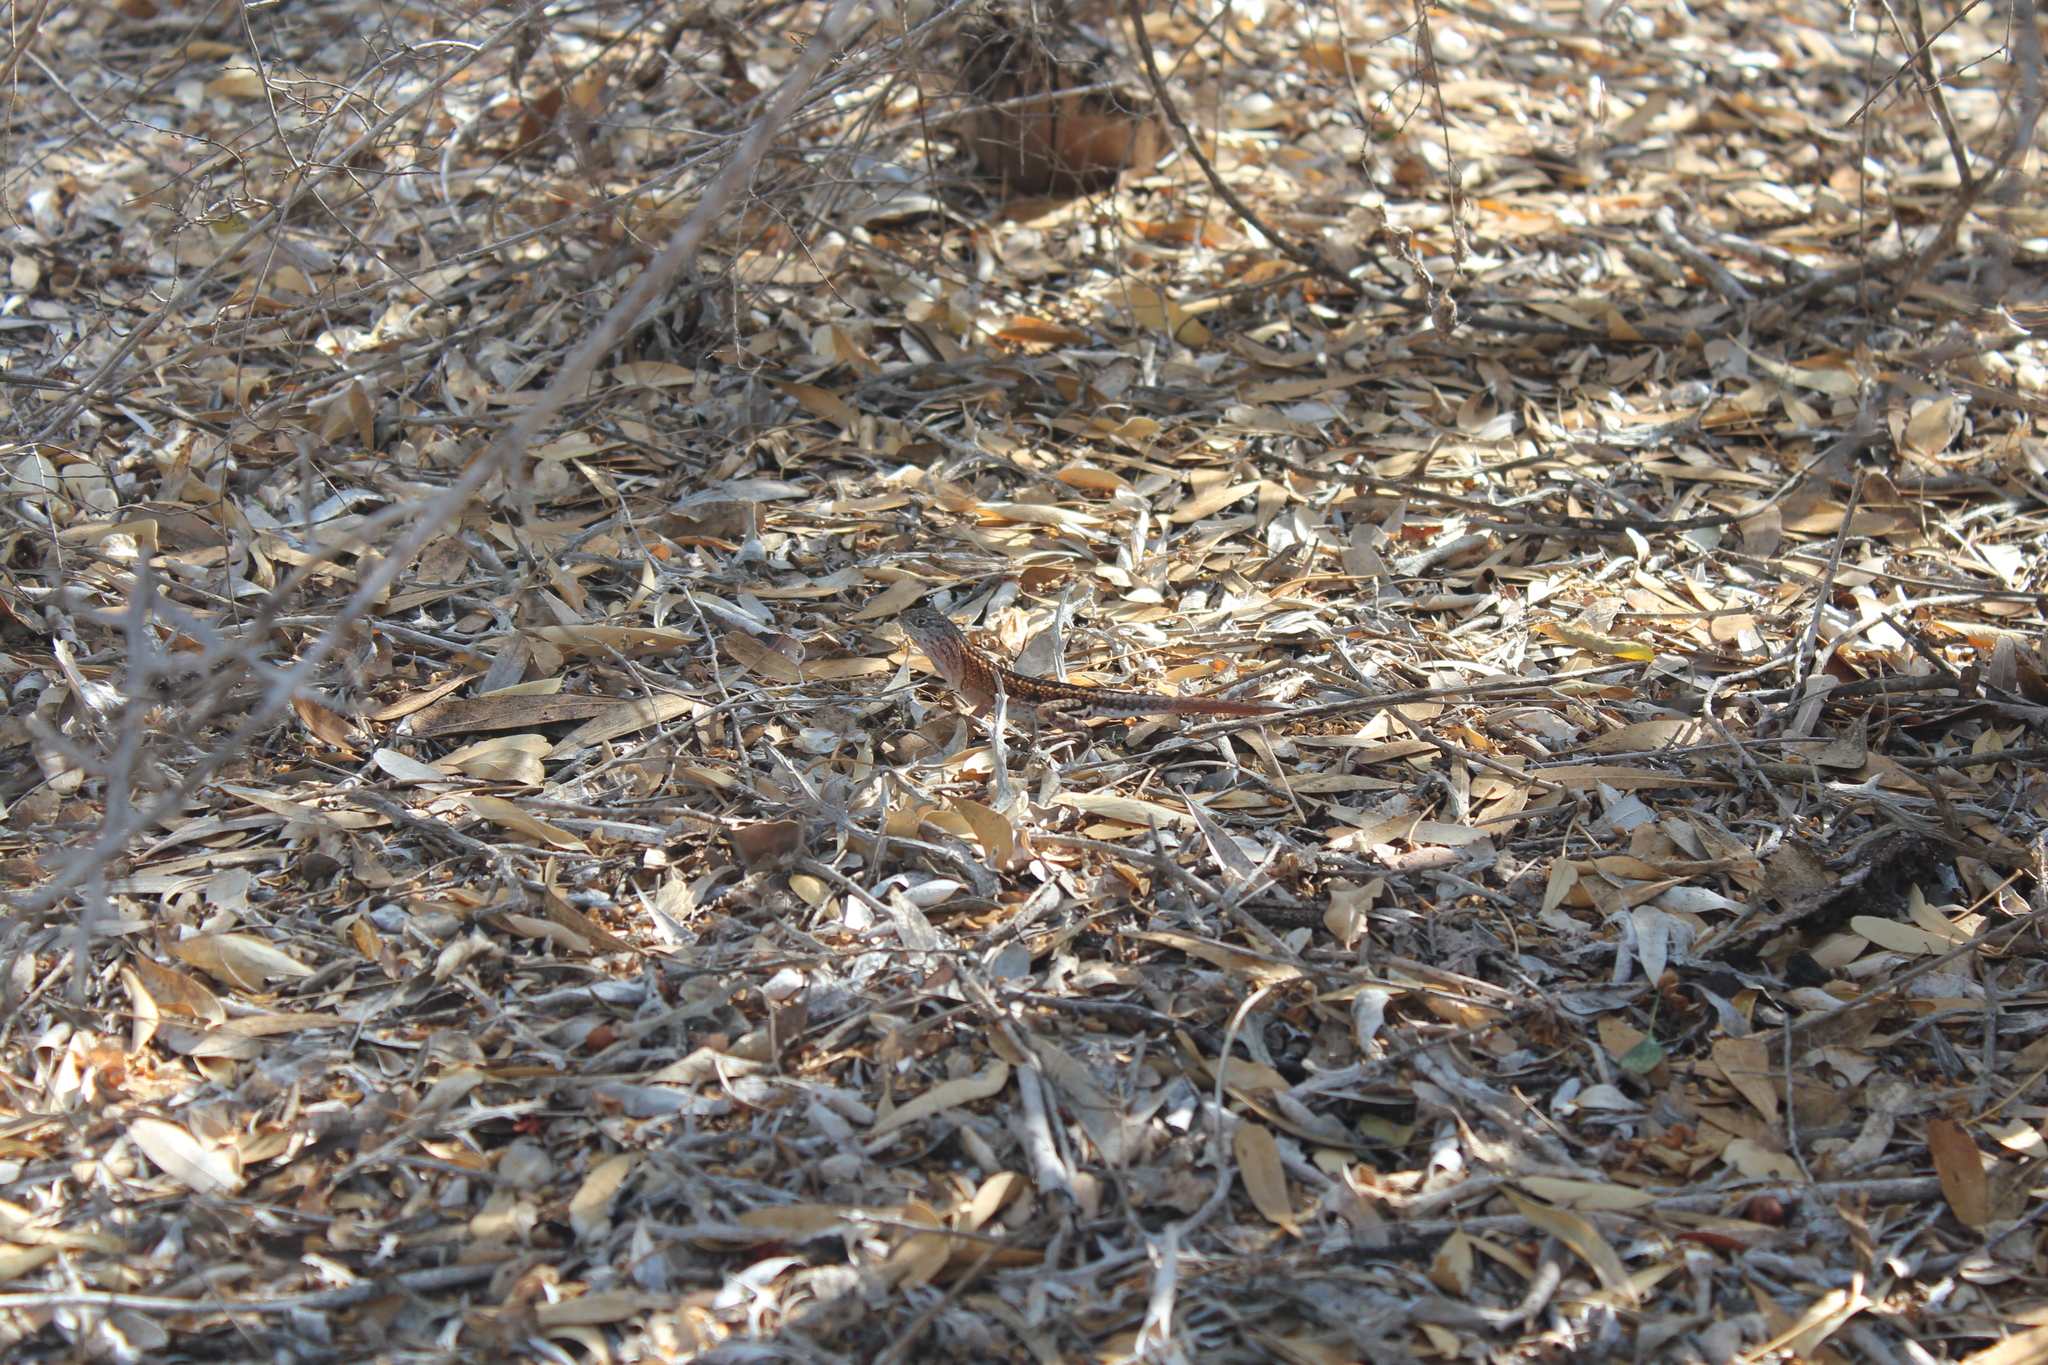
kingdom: Animalia
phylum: Chordata
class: Squamata
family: Opluridae
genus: Chalarodon
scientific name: Chalarodon madagascariensis
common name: Madagascar iguana
